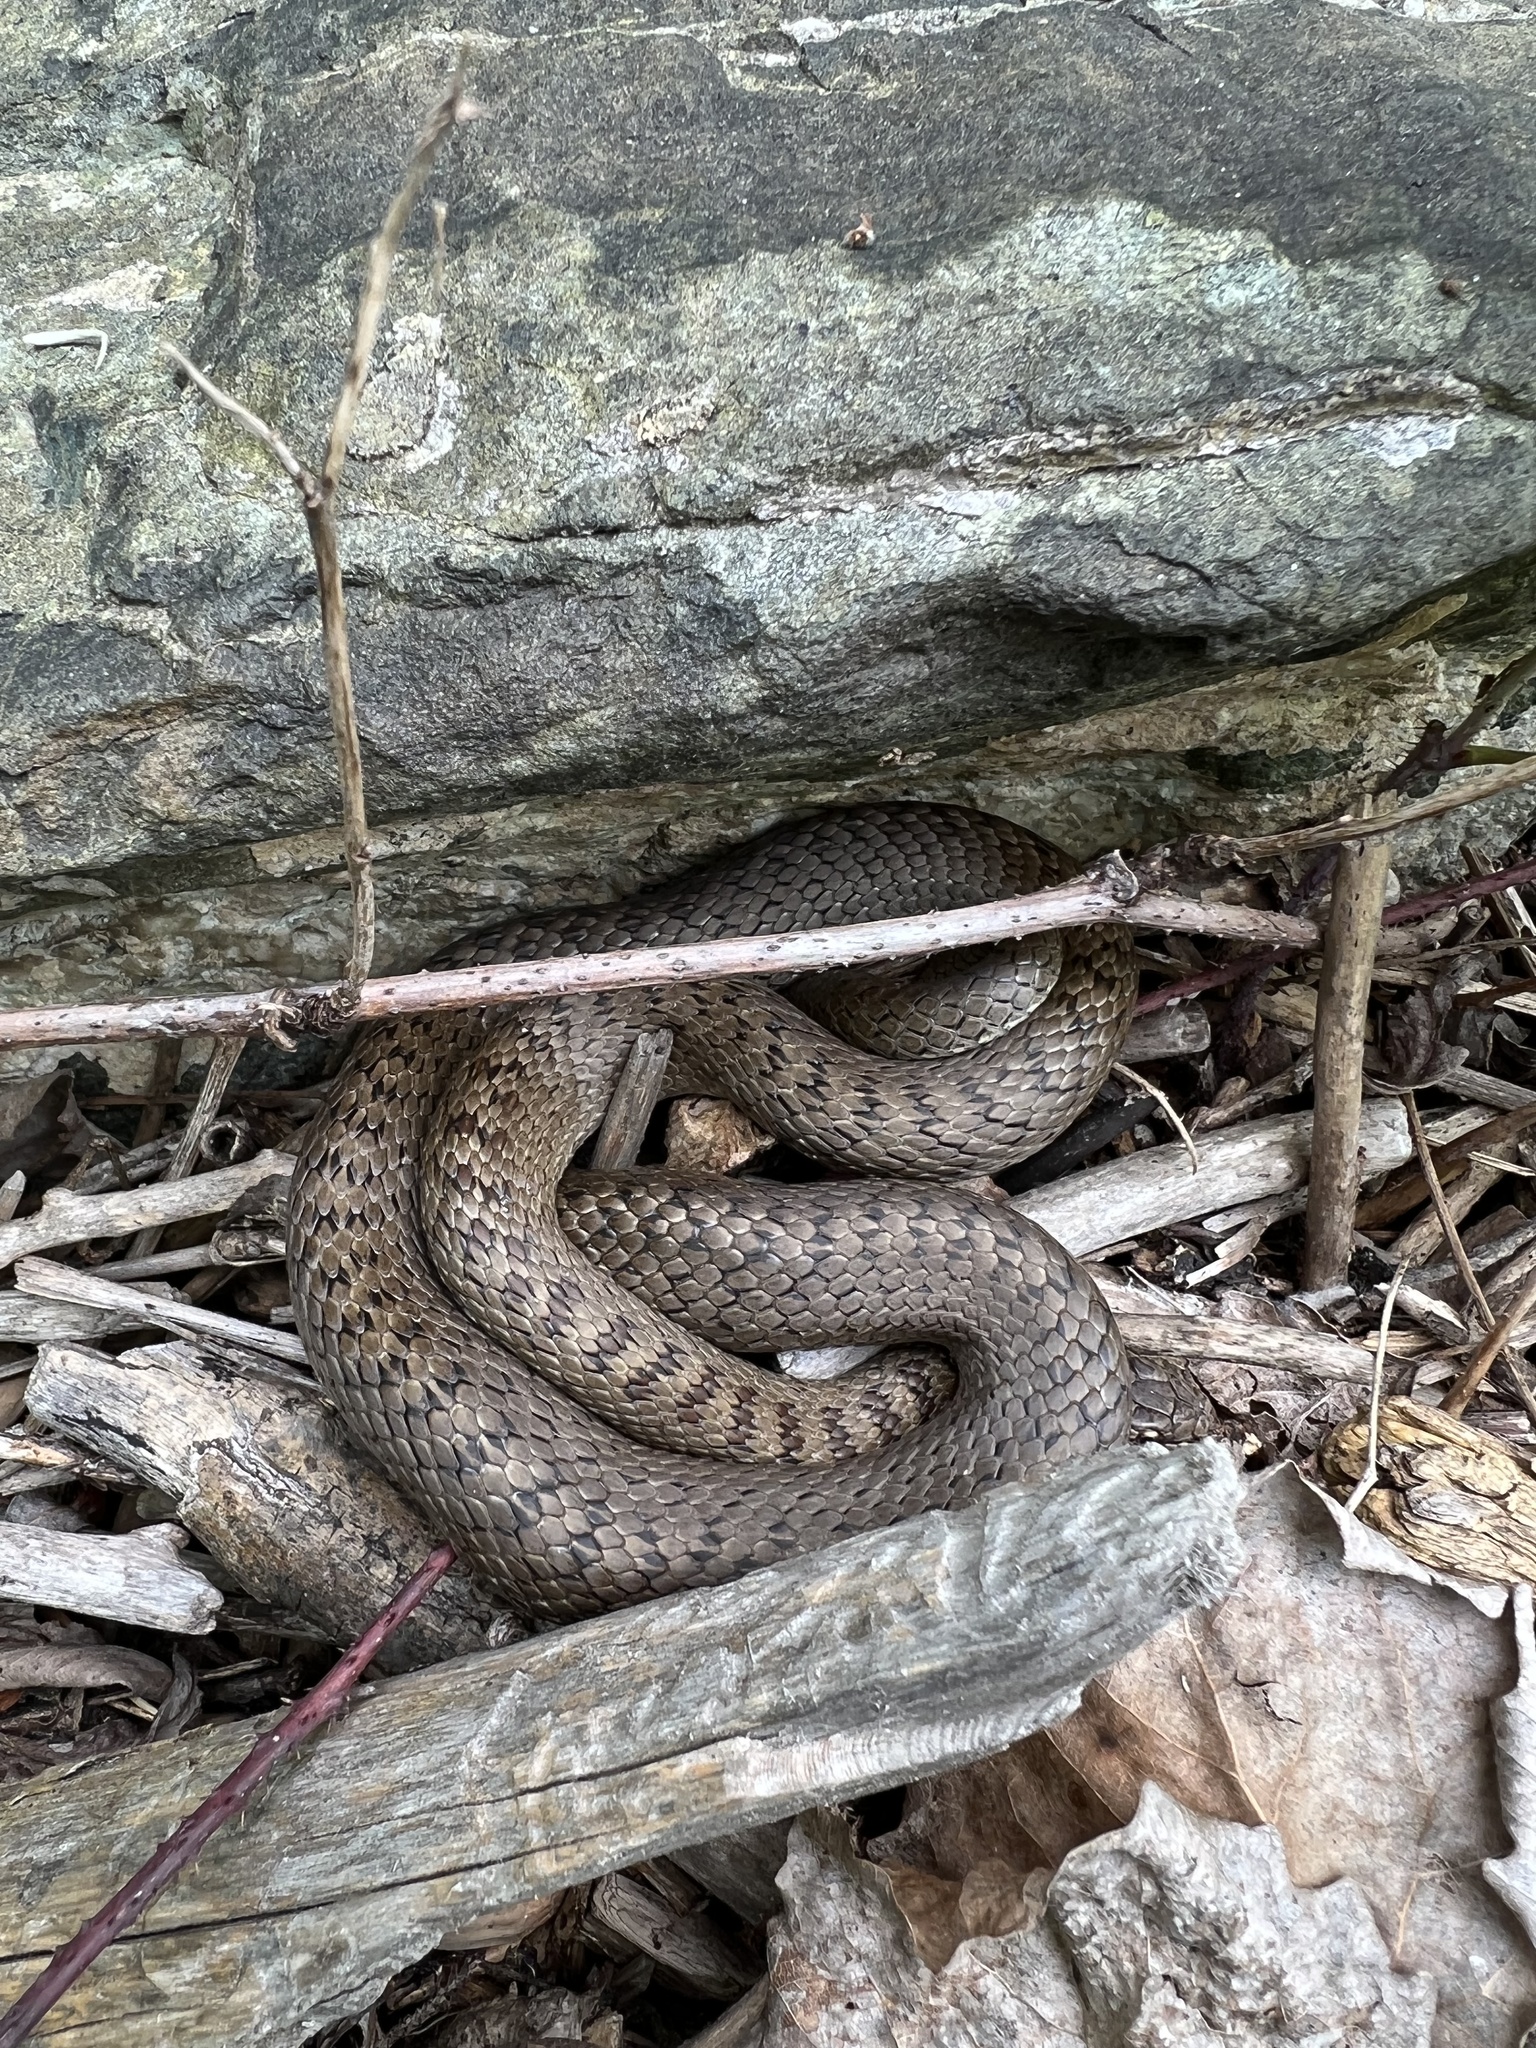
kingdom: Animalia
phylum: Chordata
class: Squamata
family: Colubridae
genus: Coronella
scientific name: Coronella austriaca
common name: Smooth snake
